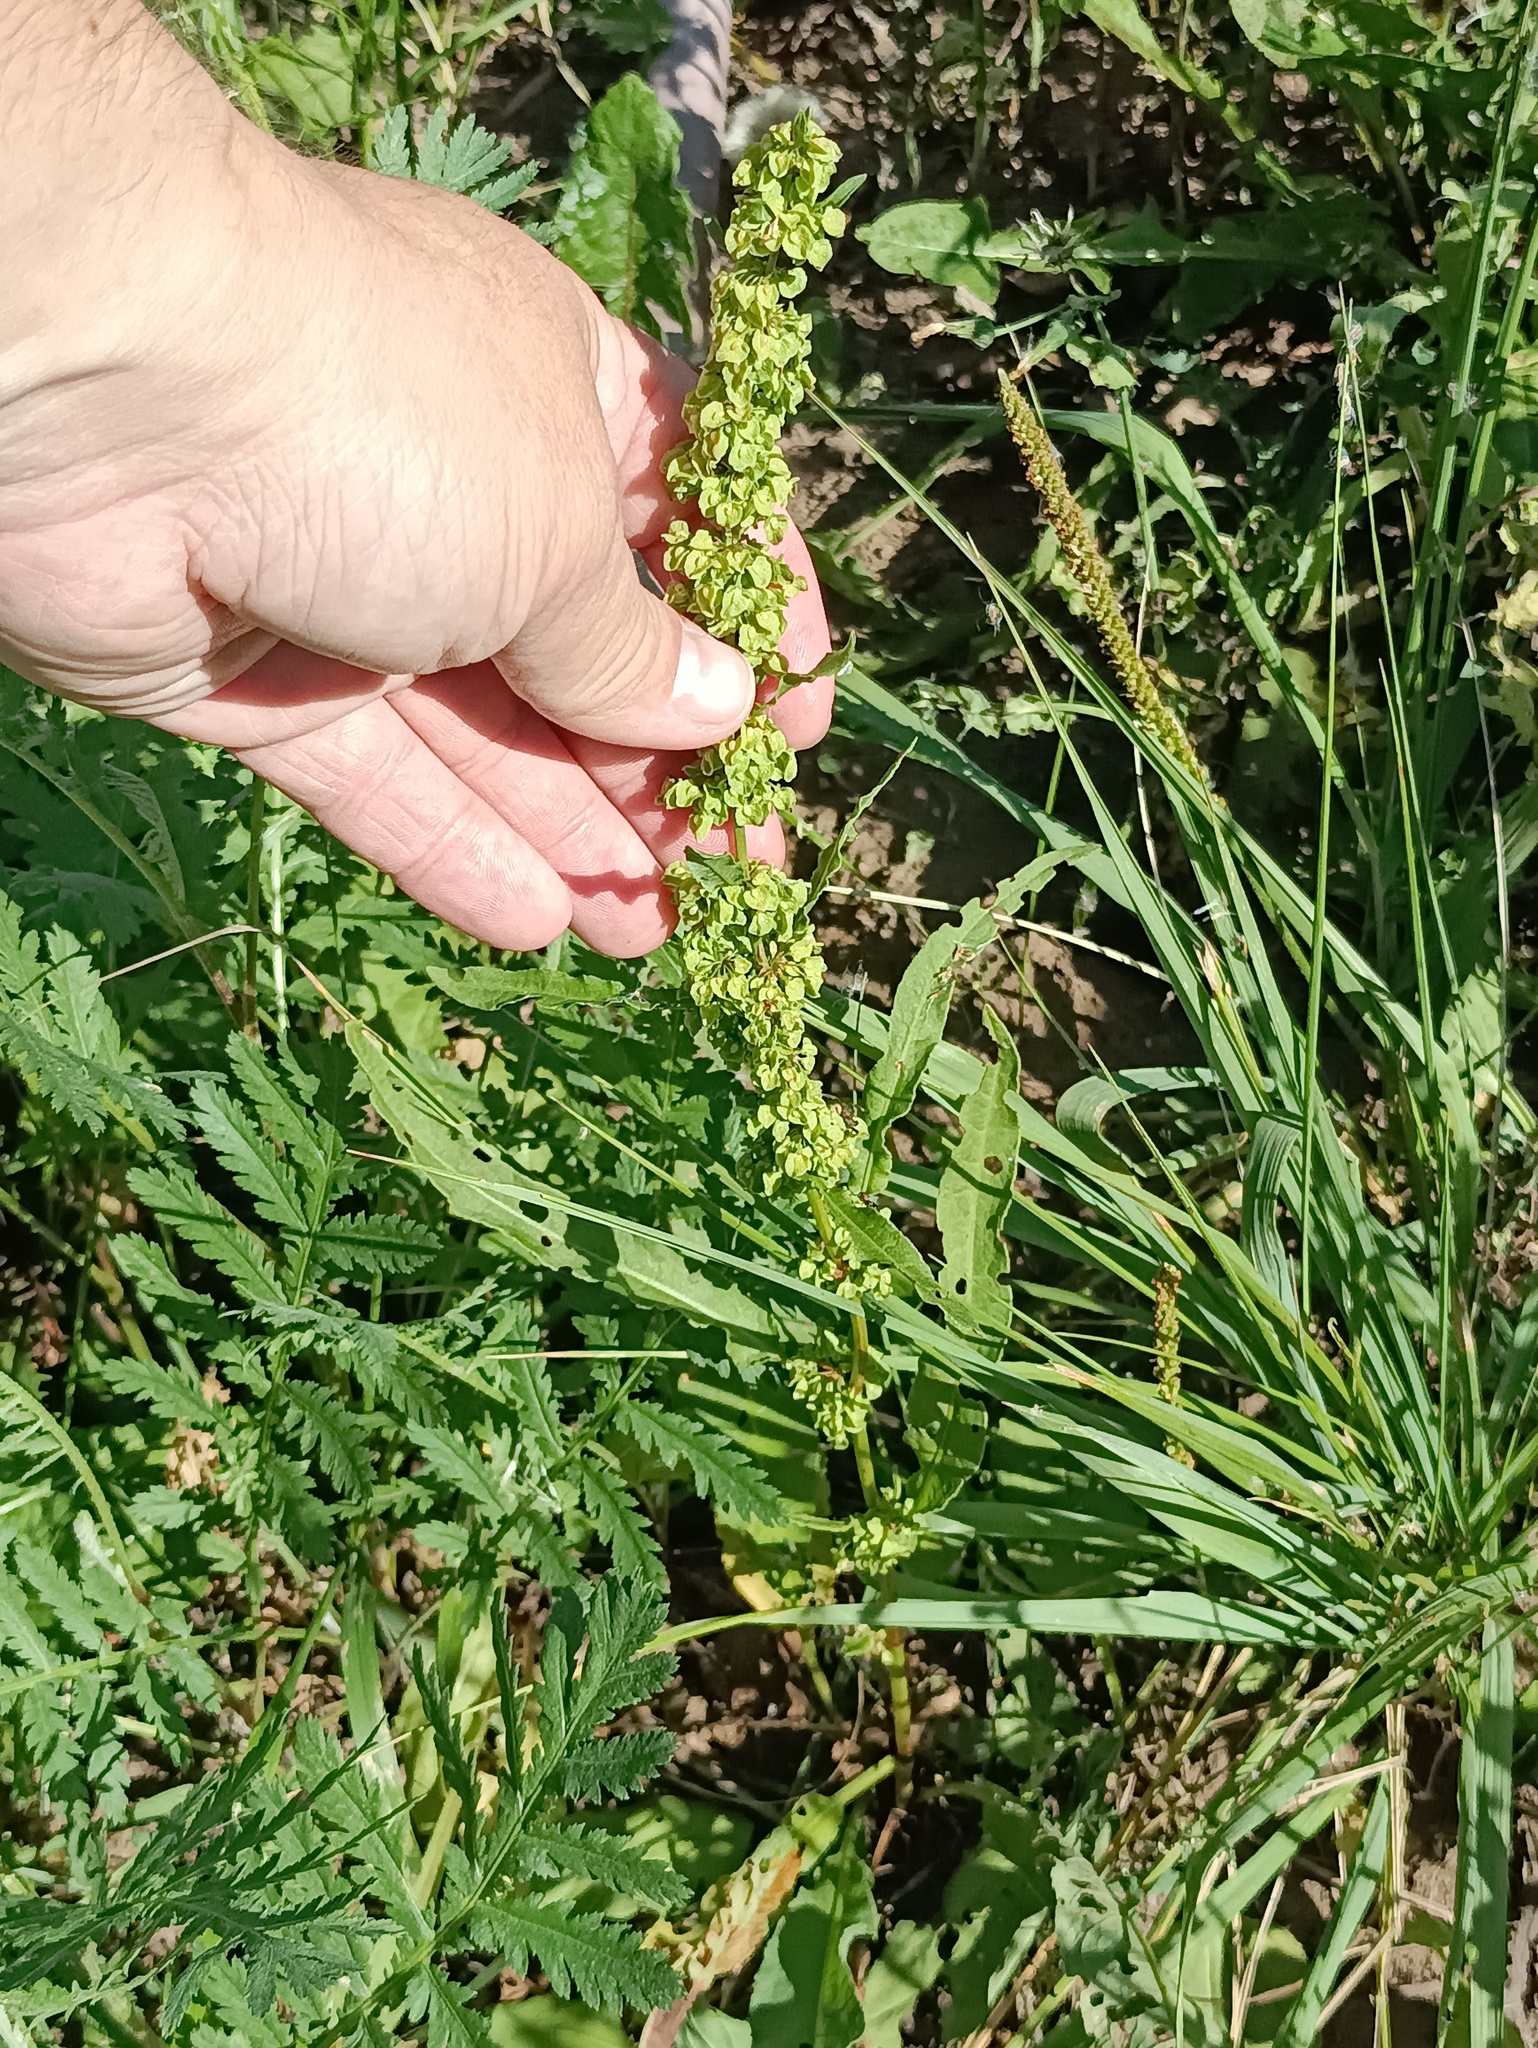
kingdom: Plantae
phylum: Tracheophyta
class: Magnoliopsida
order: Caryophyllales
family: Polygonaceae
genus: Rumex
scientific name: Rumex crispus
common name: Curled dock
